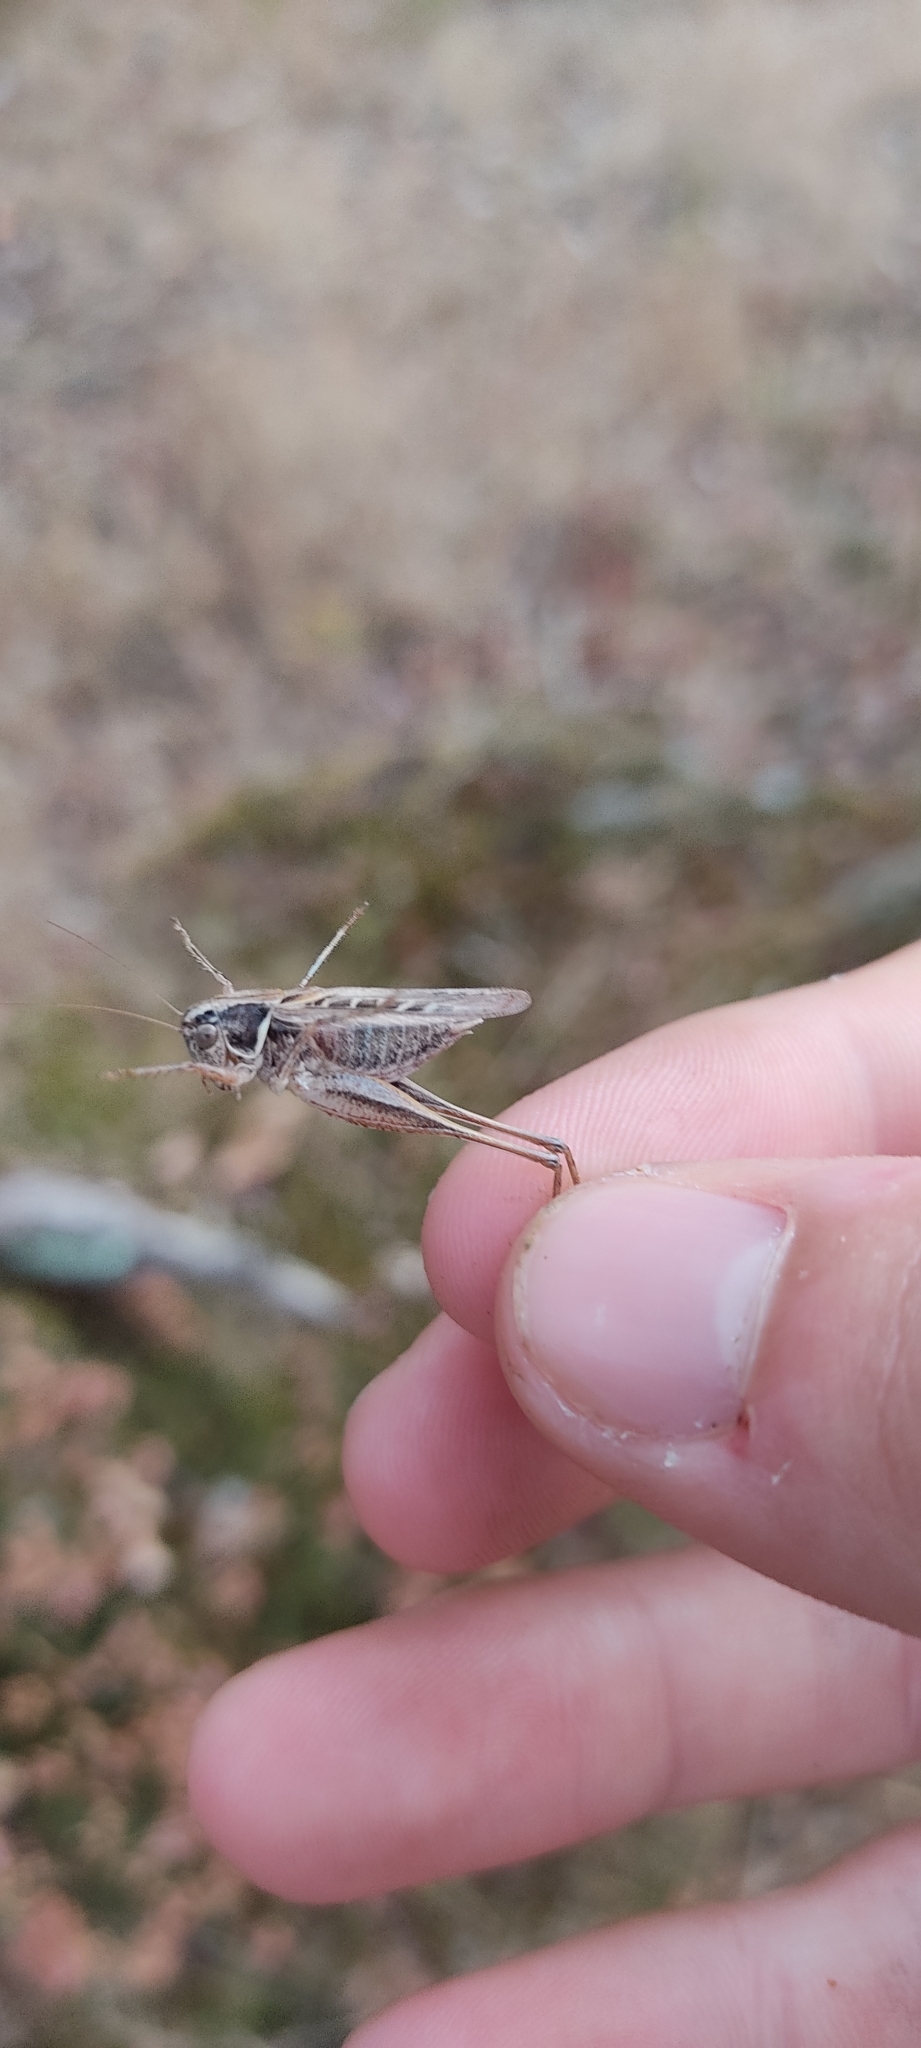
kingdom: Animalia
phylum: Arthropoda
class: Insecta
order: Orthoptera
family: Tettigoniidae
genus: Tessellana
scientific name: Tessellana tessellata
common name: Grasshopper
